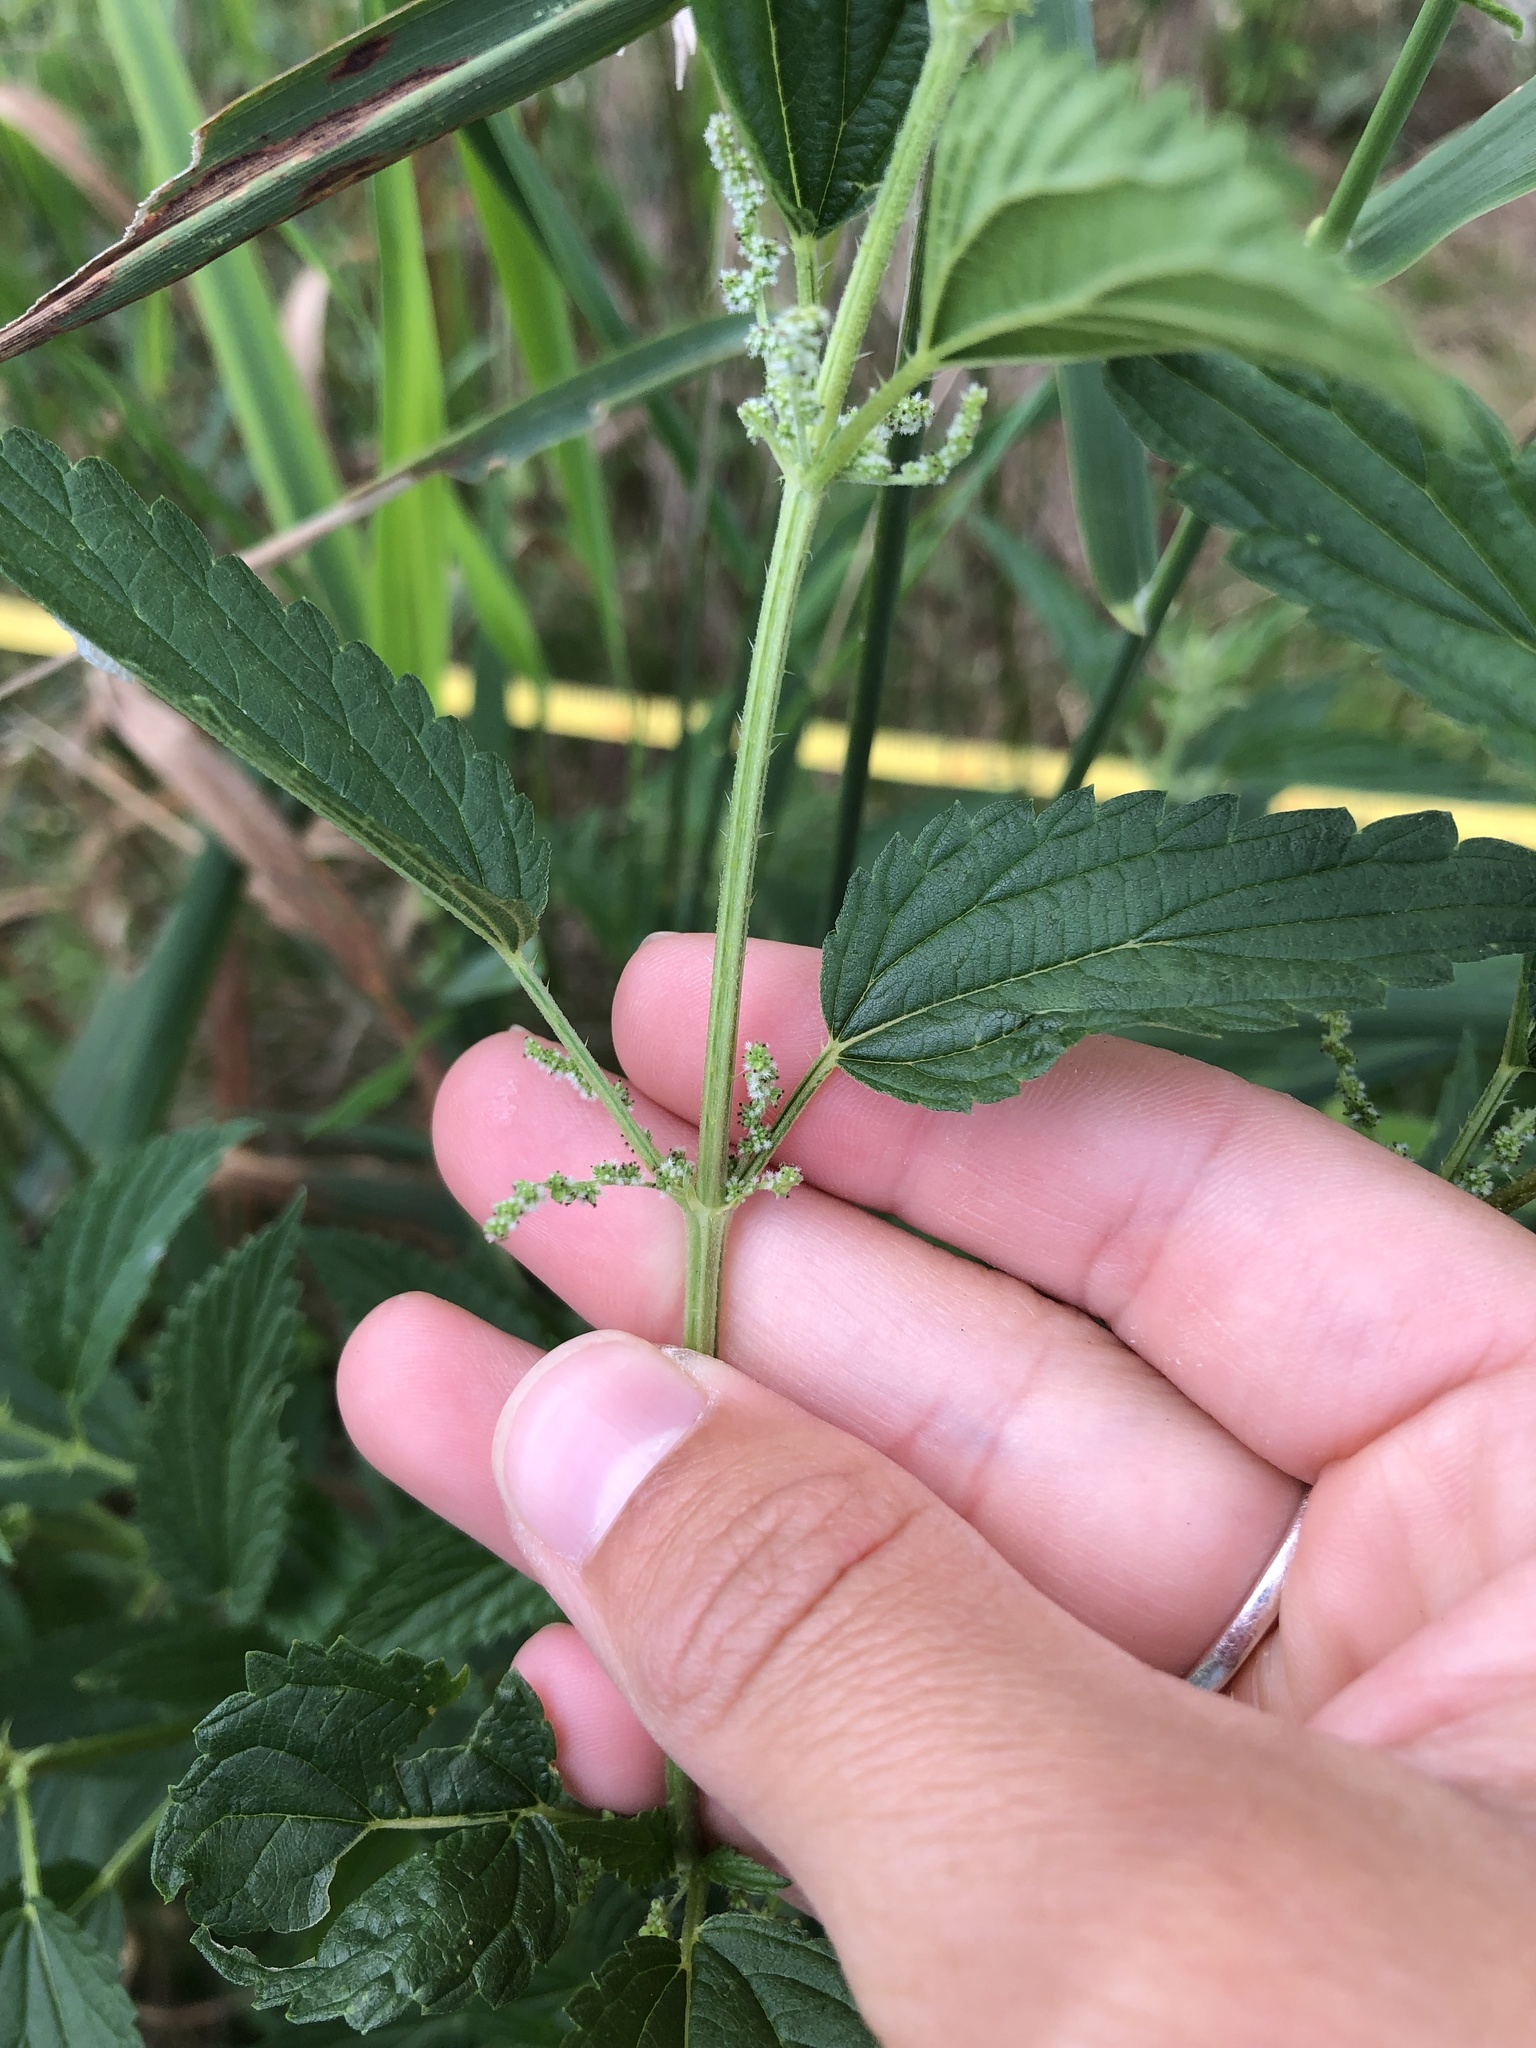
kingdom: Plantae
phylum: Tracheophyta
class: Magnoliopsida
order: Rosales
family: Urticaceae
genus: Urtica
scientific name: Urtica dioica
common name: Common nettle
